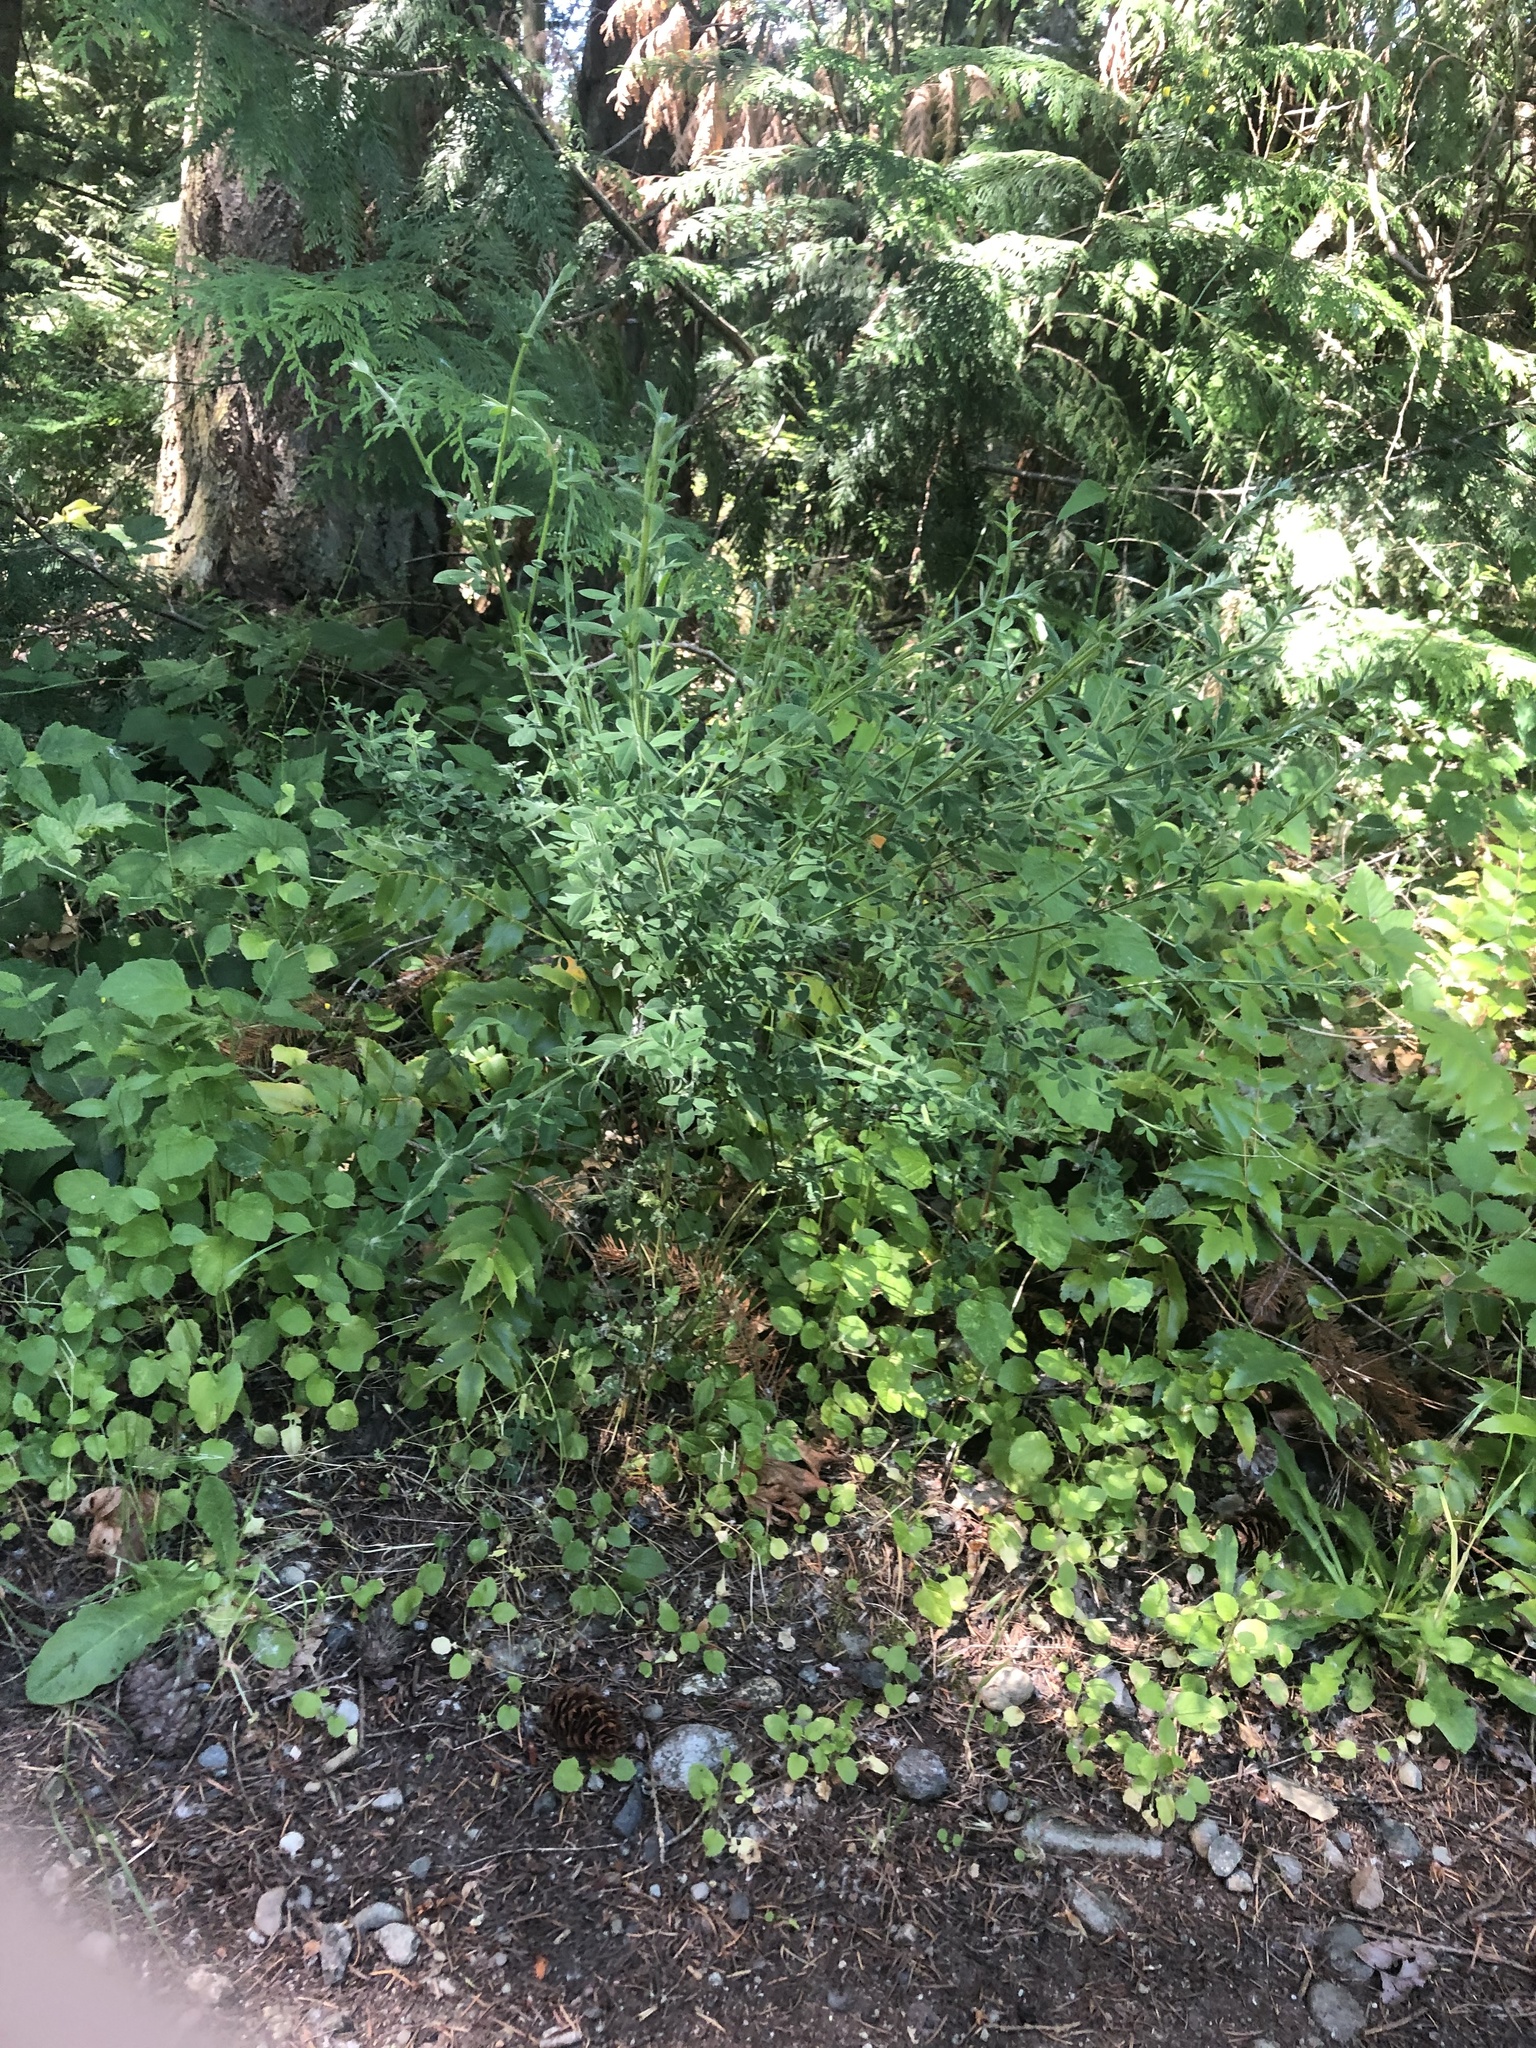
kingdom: Plantae
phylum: Tracheophyta
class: Magnoliopsida
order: Asterales
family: Asteraceae
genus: Jacobaea
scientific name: Jacobaea vulgaris
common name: Stinking willie
